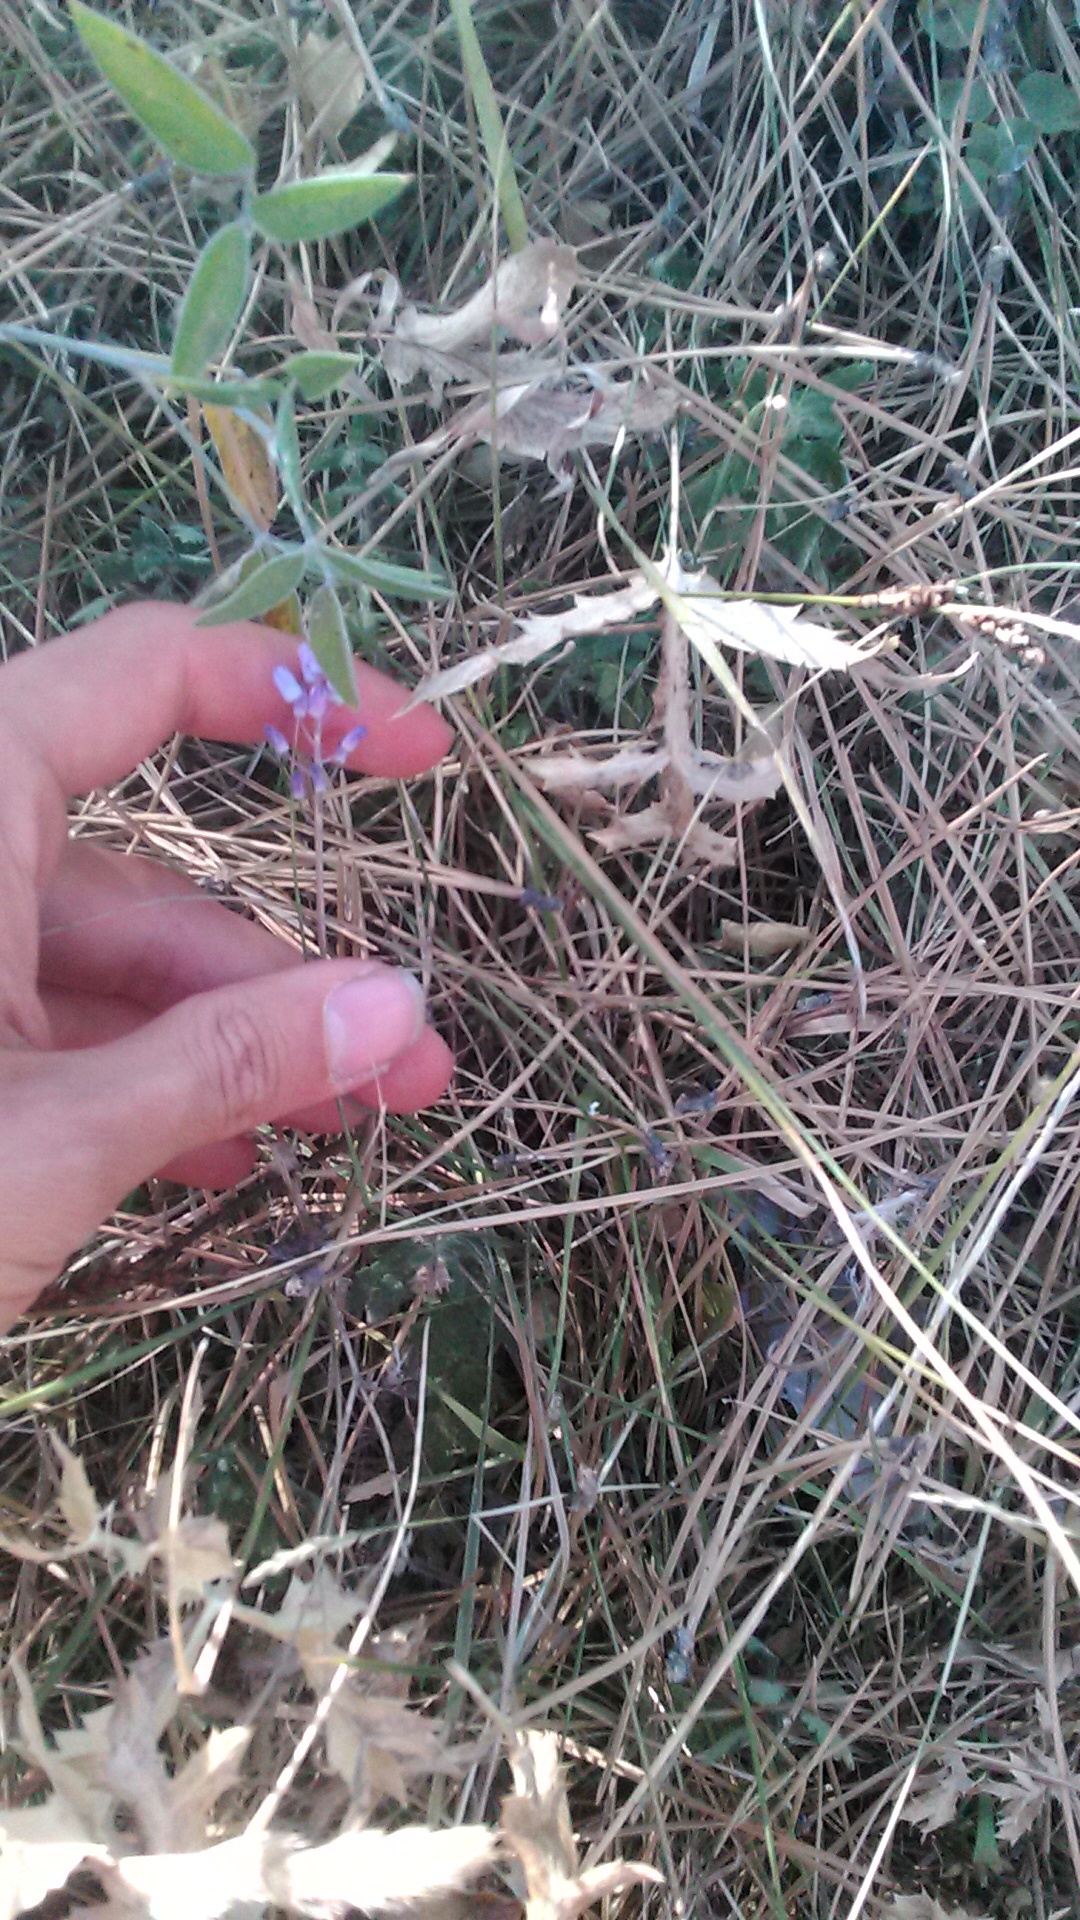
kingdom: Plantae
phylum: Tracheophyta
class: Liliopsida
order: Asparagales
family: Asparagaceae
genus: Prospero
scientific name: Prospero autumnale
